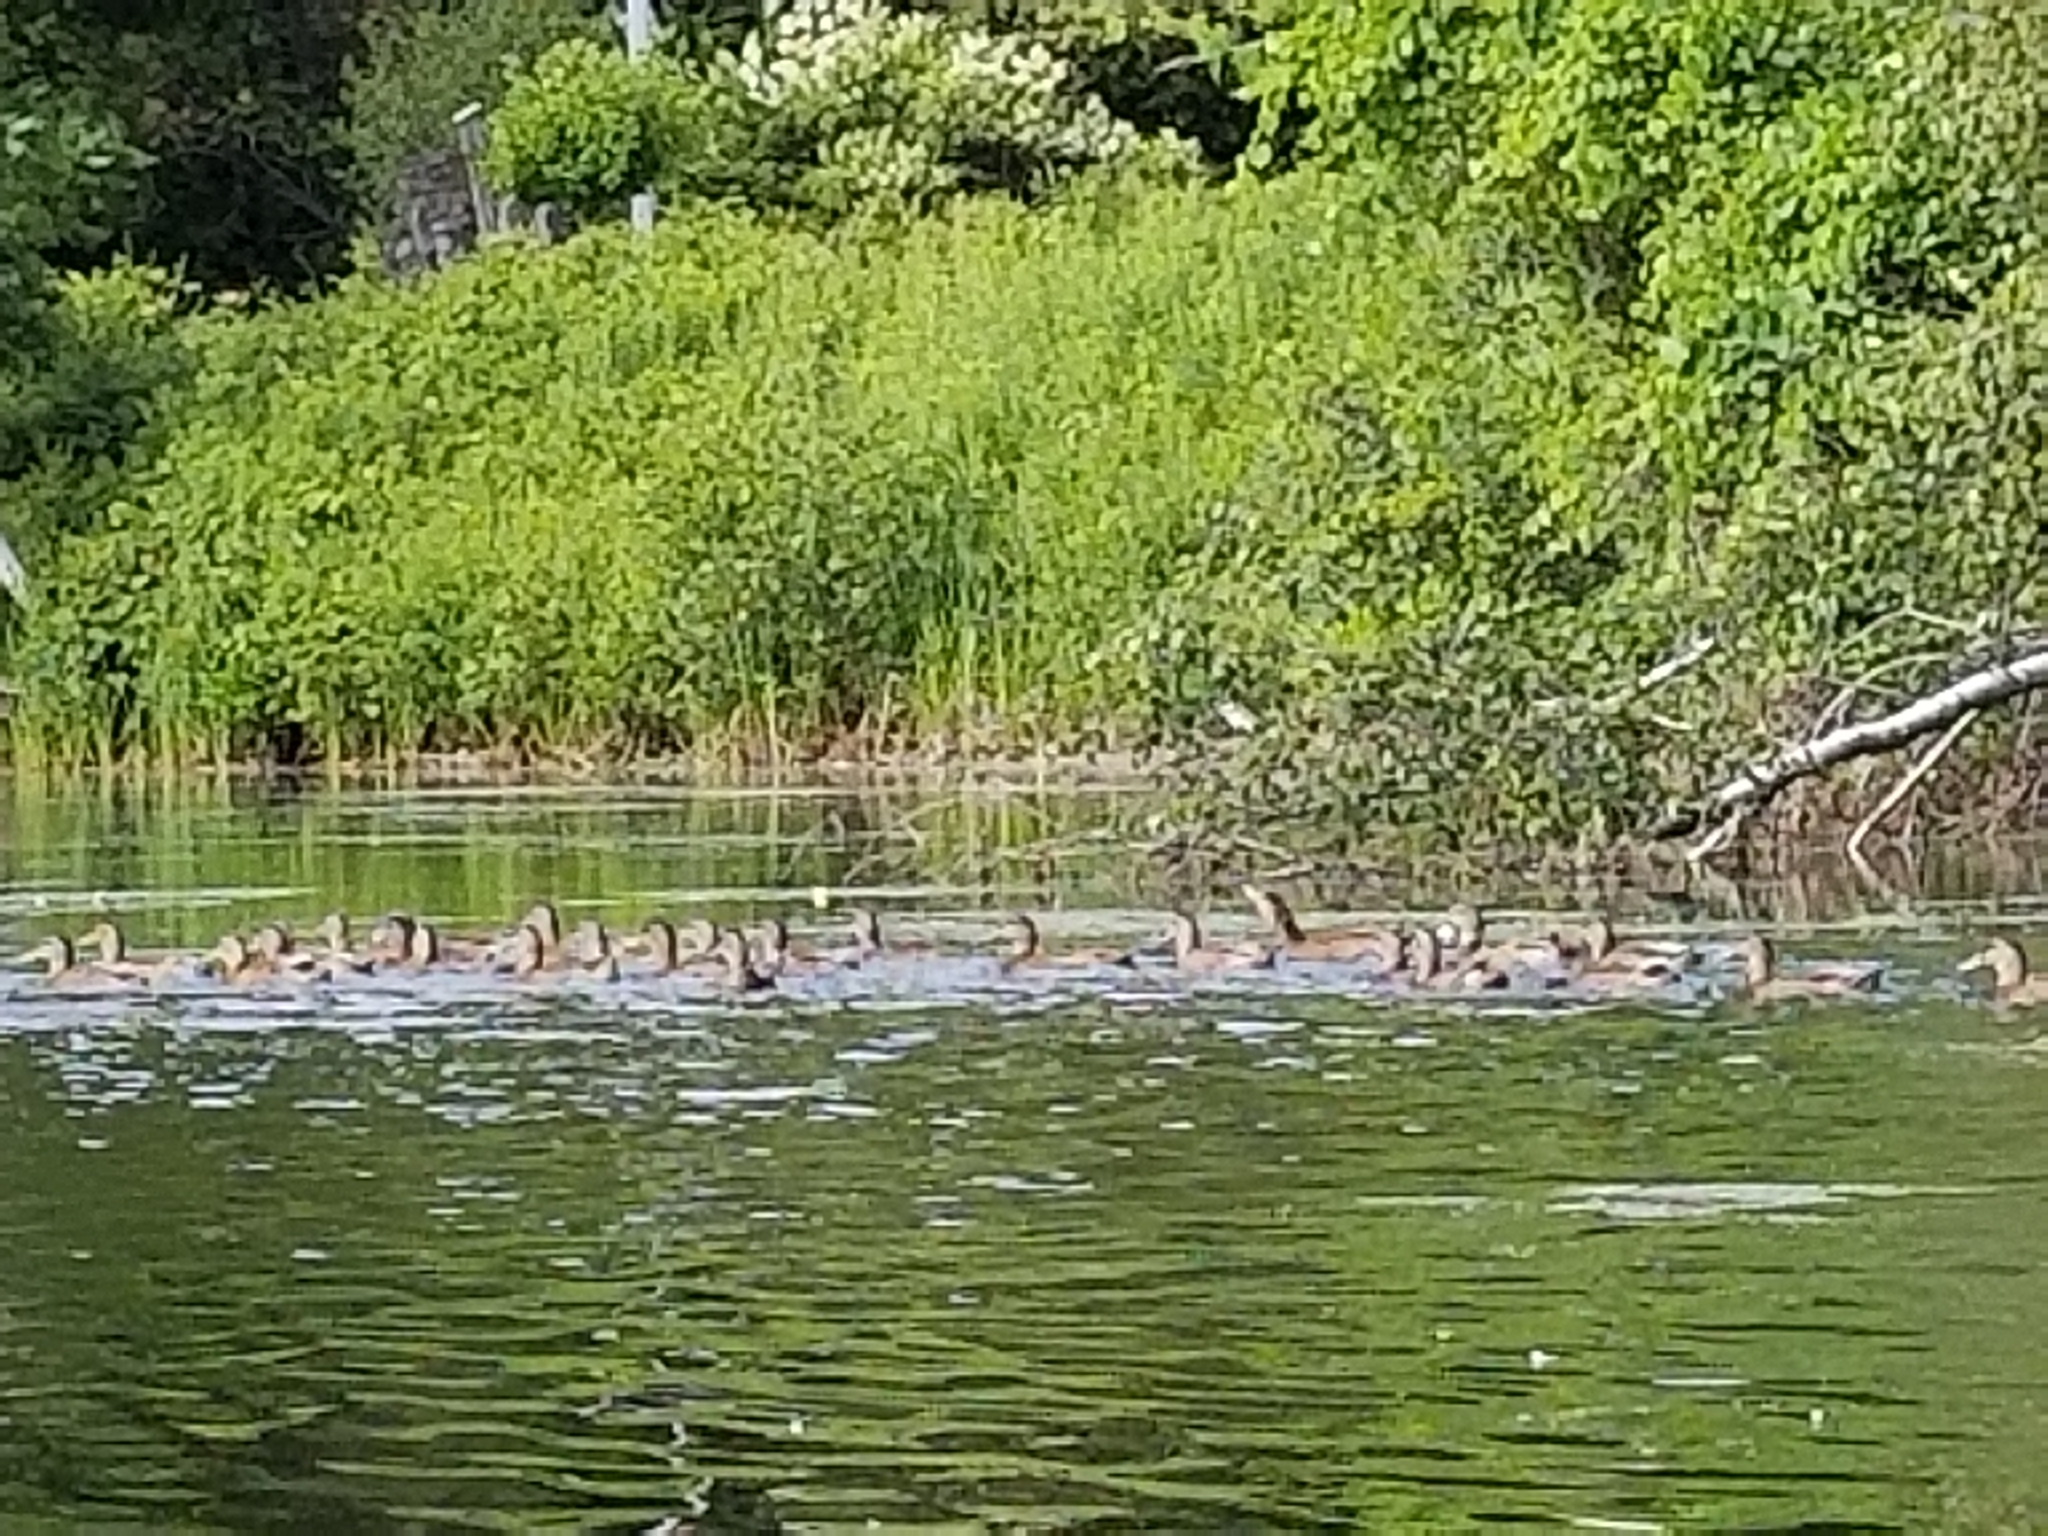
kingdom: Animalia
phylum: Chordata
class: Aves
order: Anseriformes
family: Anatidae
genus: Anas
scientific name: Anas platyrhynchos
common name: Mallard
